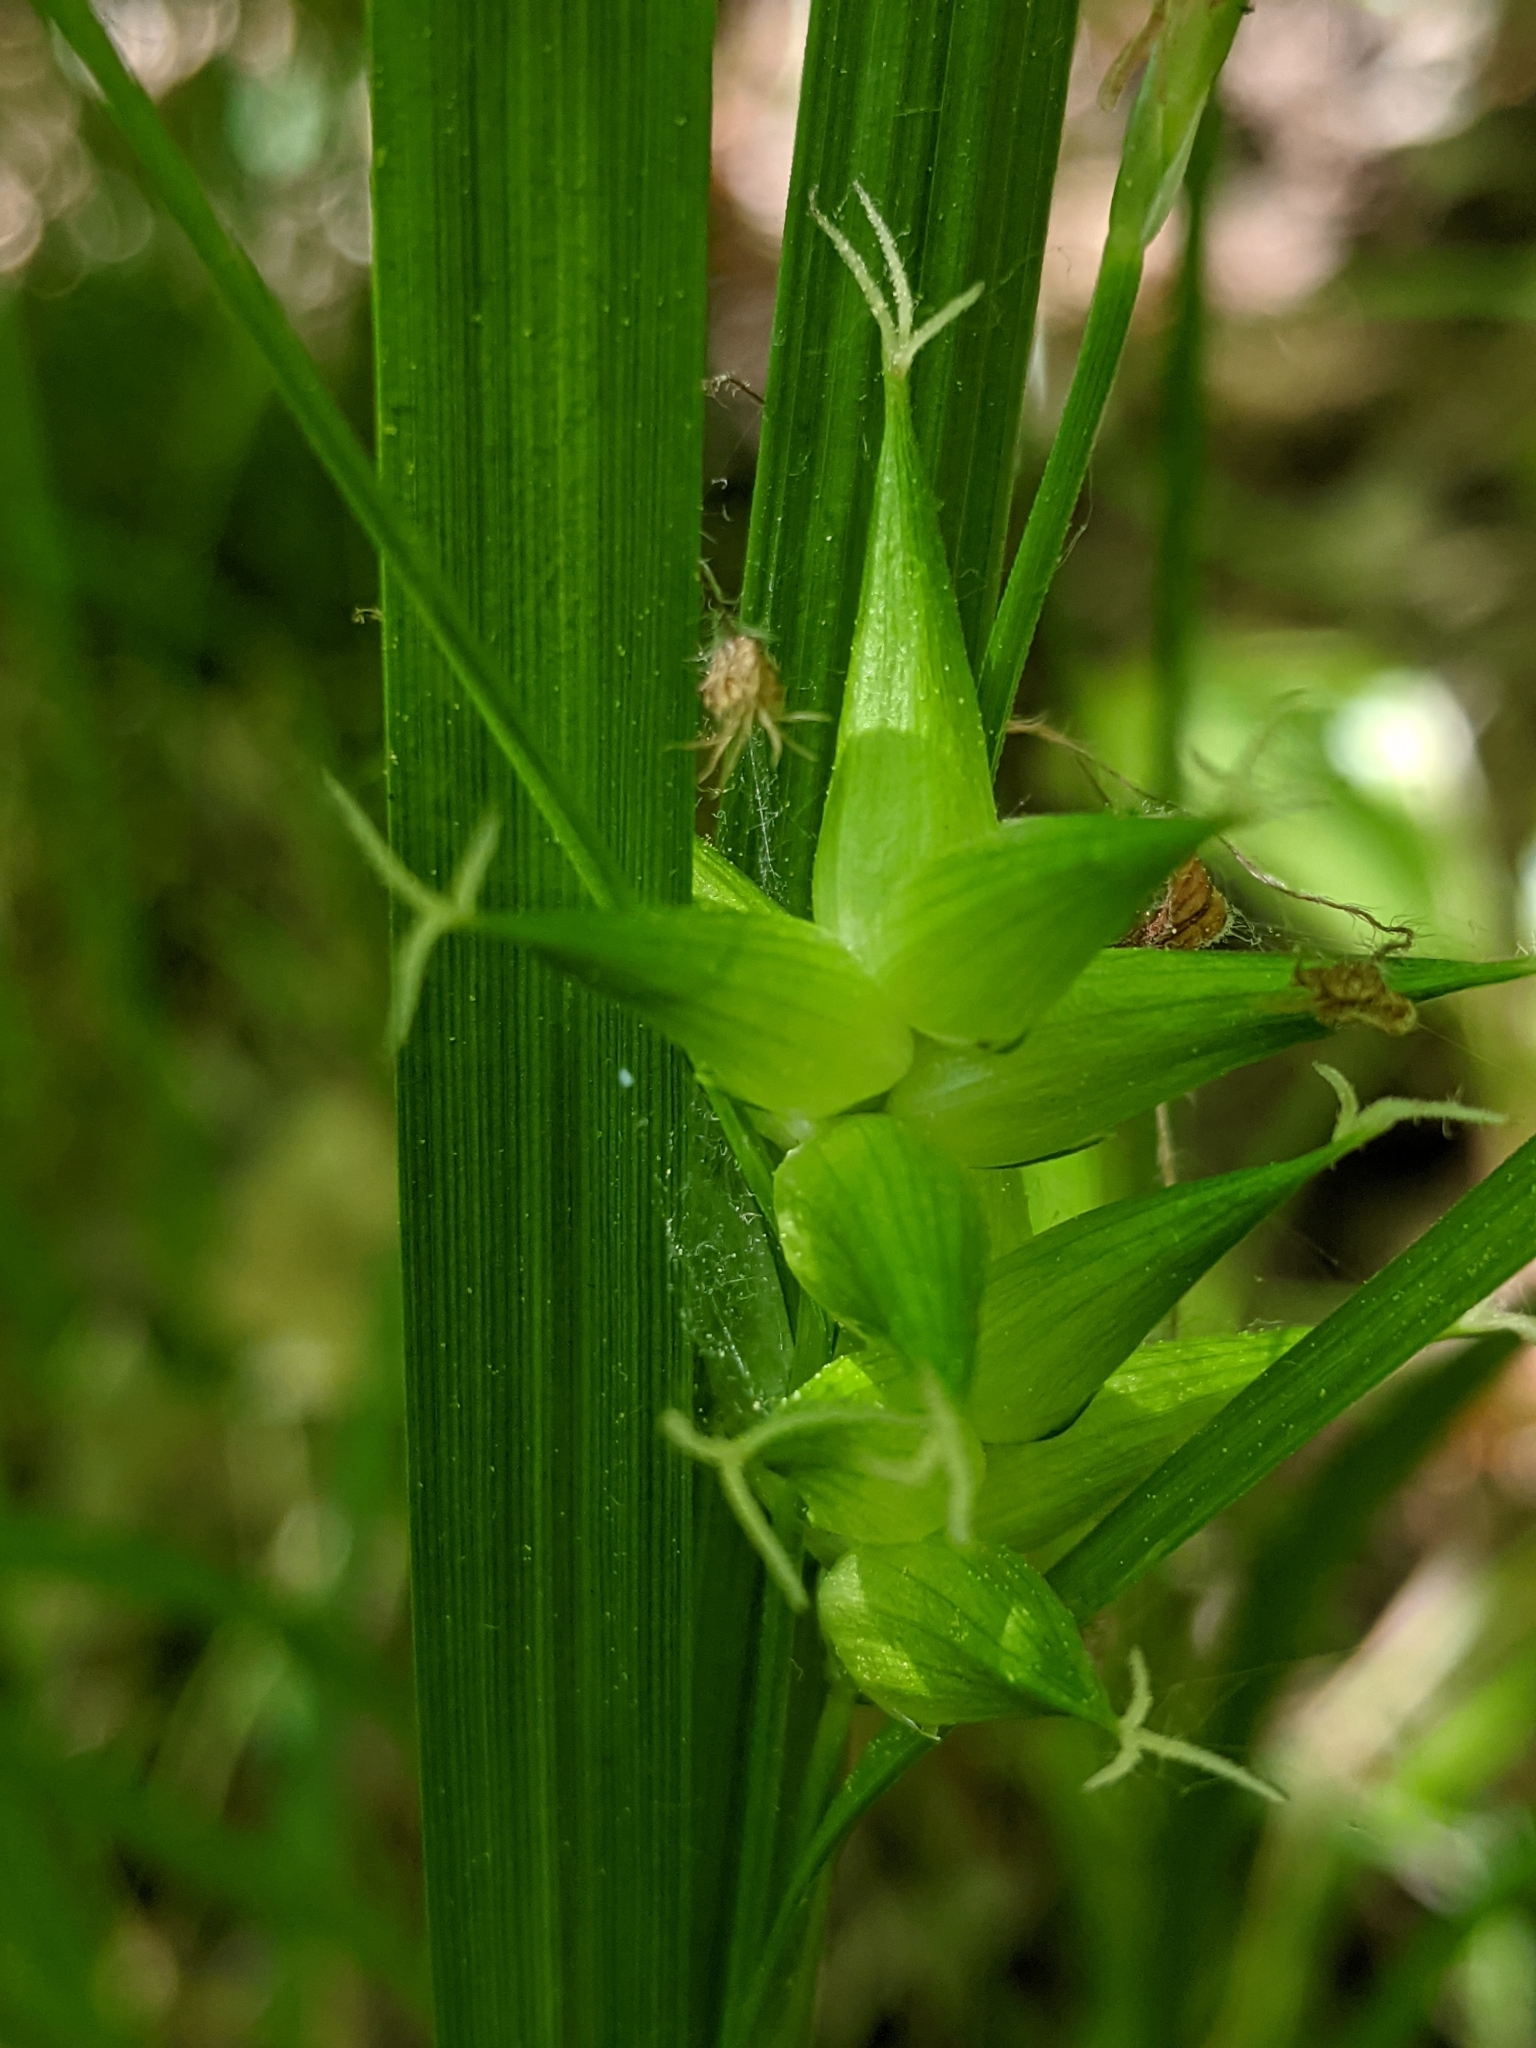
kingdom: Plantae
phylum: Tracheophyta
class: Liliopsida
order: Poales
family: Cyperaceae
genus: Carex
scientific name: Carex intumescens
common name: Greater bladder sedge
